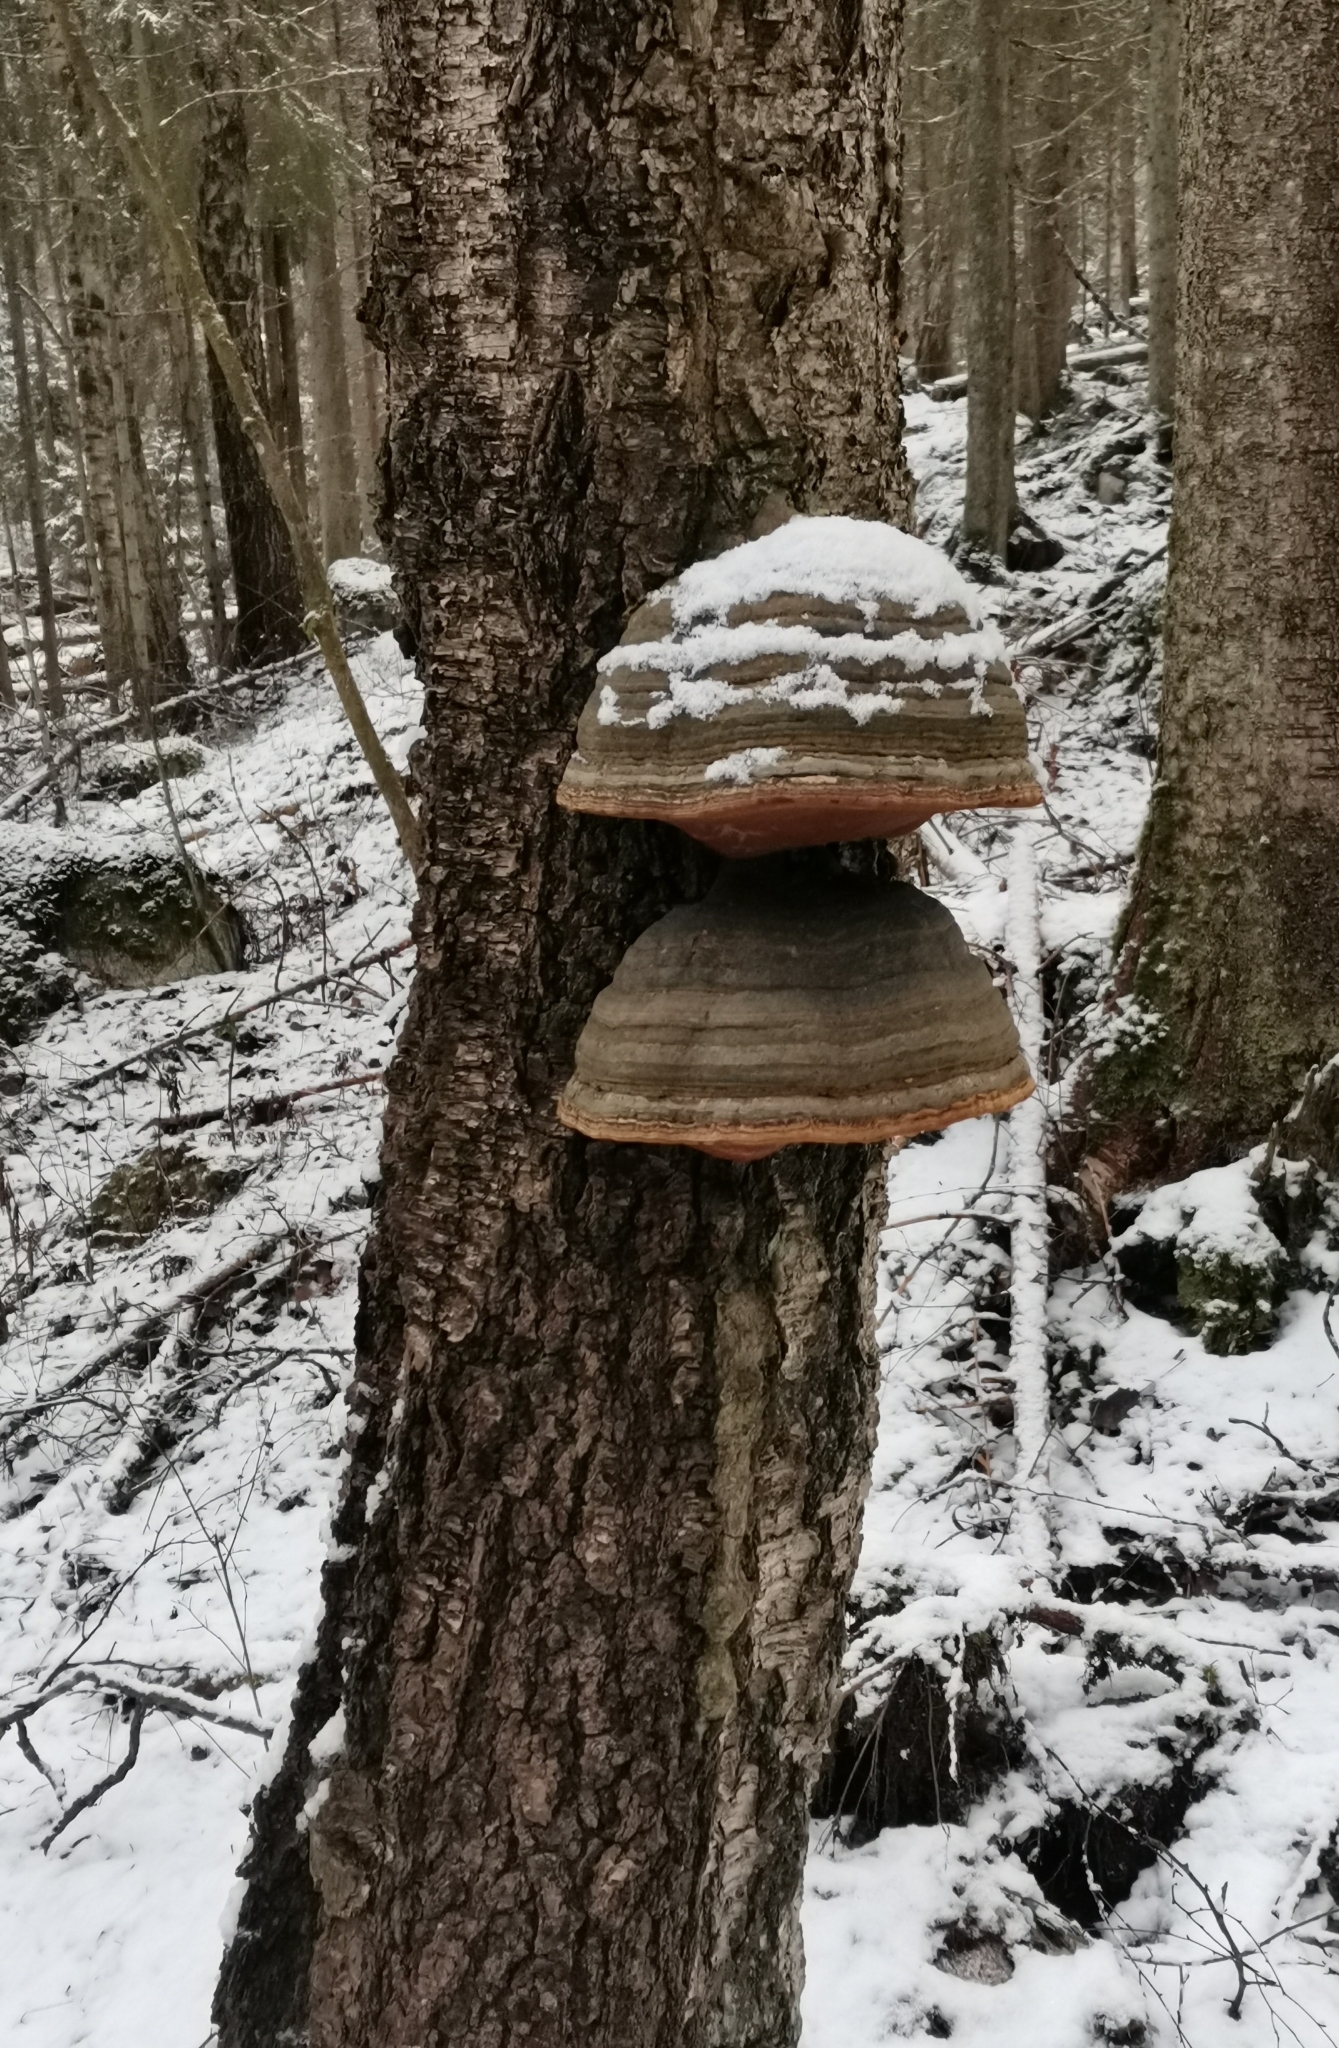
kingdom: Fungi
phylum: Basidiomycota
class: Agaricomycetes
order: Polyporales
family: Polyporaceae
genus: Fomes
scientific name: Fomes fomentarius
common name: Hoof fungus
